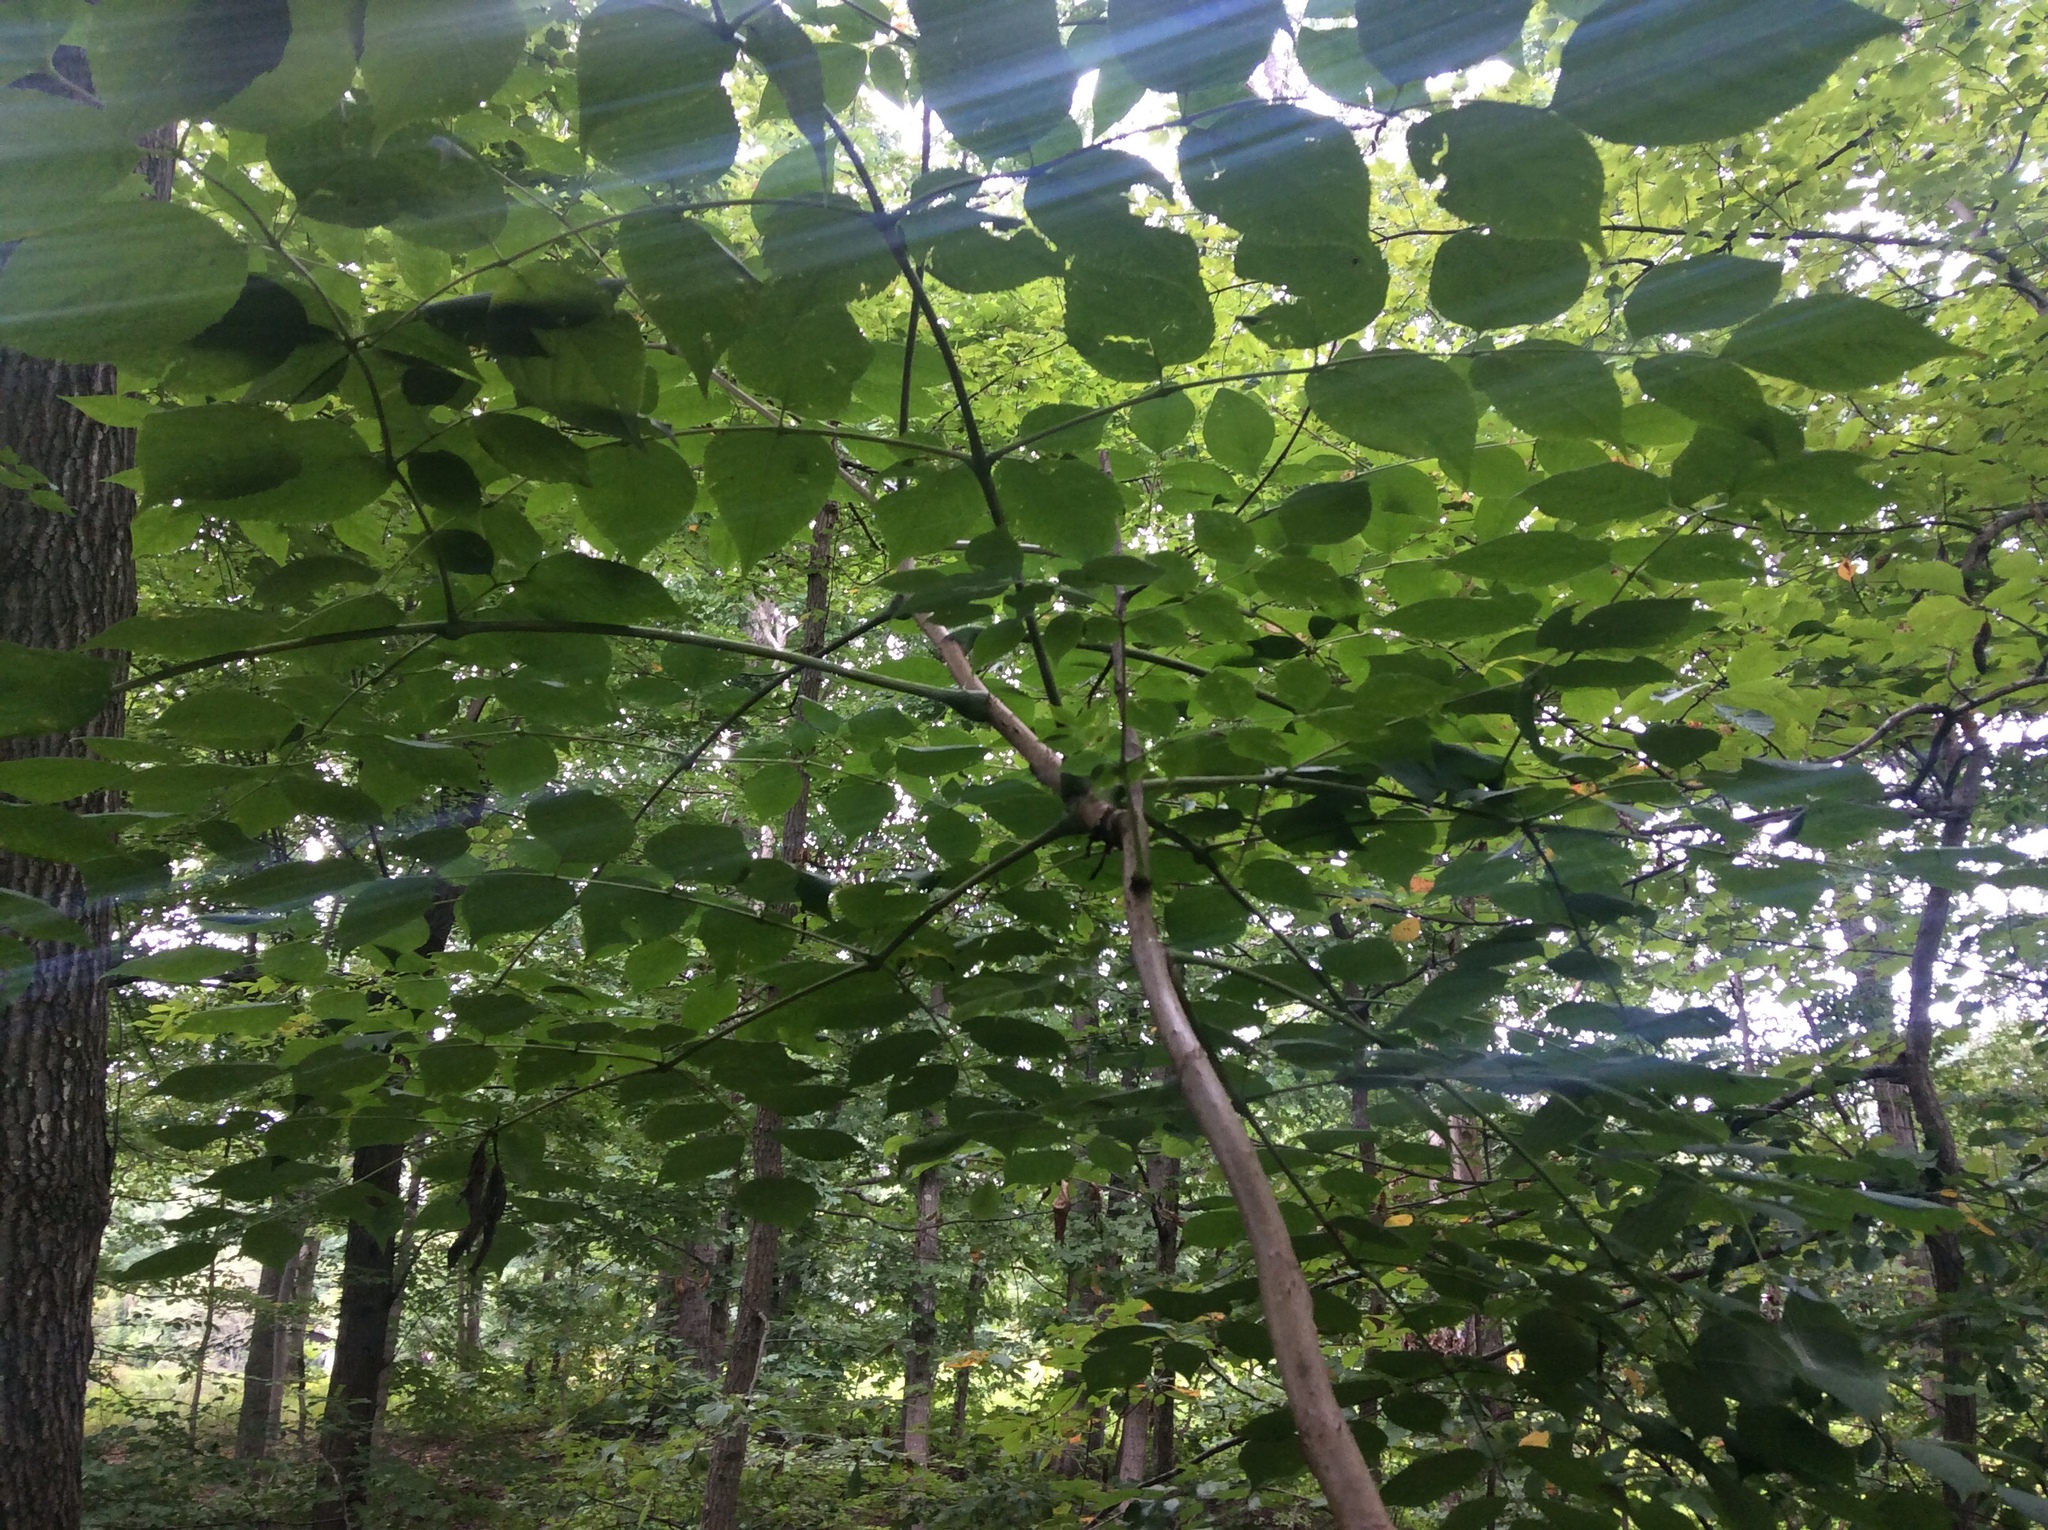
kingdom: Plantae
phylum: Tracheophyta
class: Magnoliopsida
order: Apiales
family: Araliaceae
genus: Aralia
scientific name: Aralia spinosa
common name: Hercules'-club
